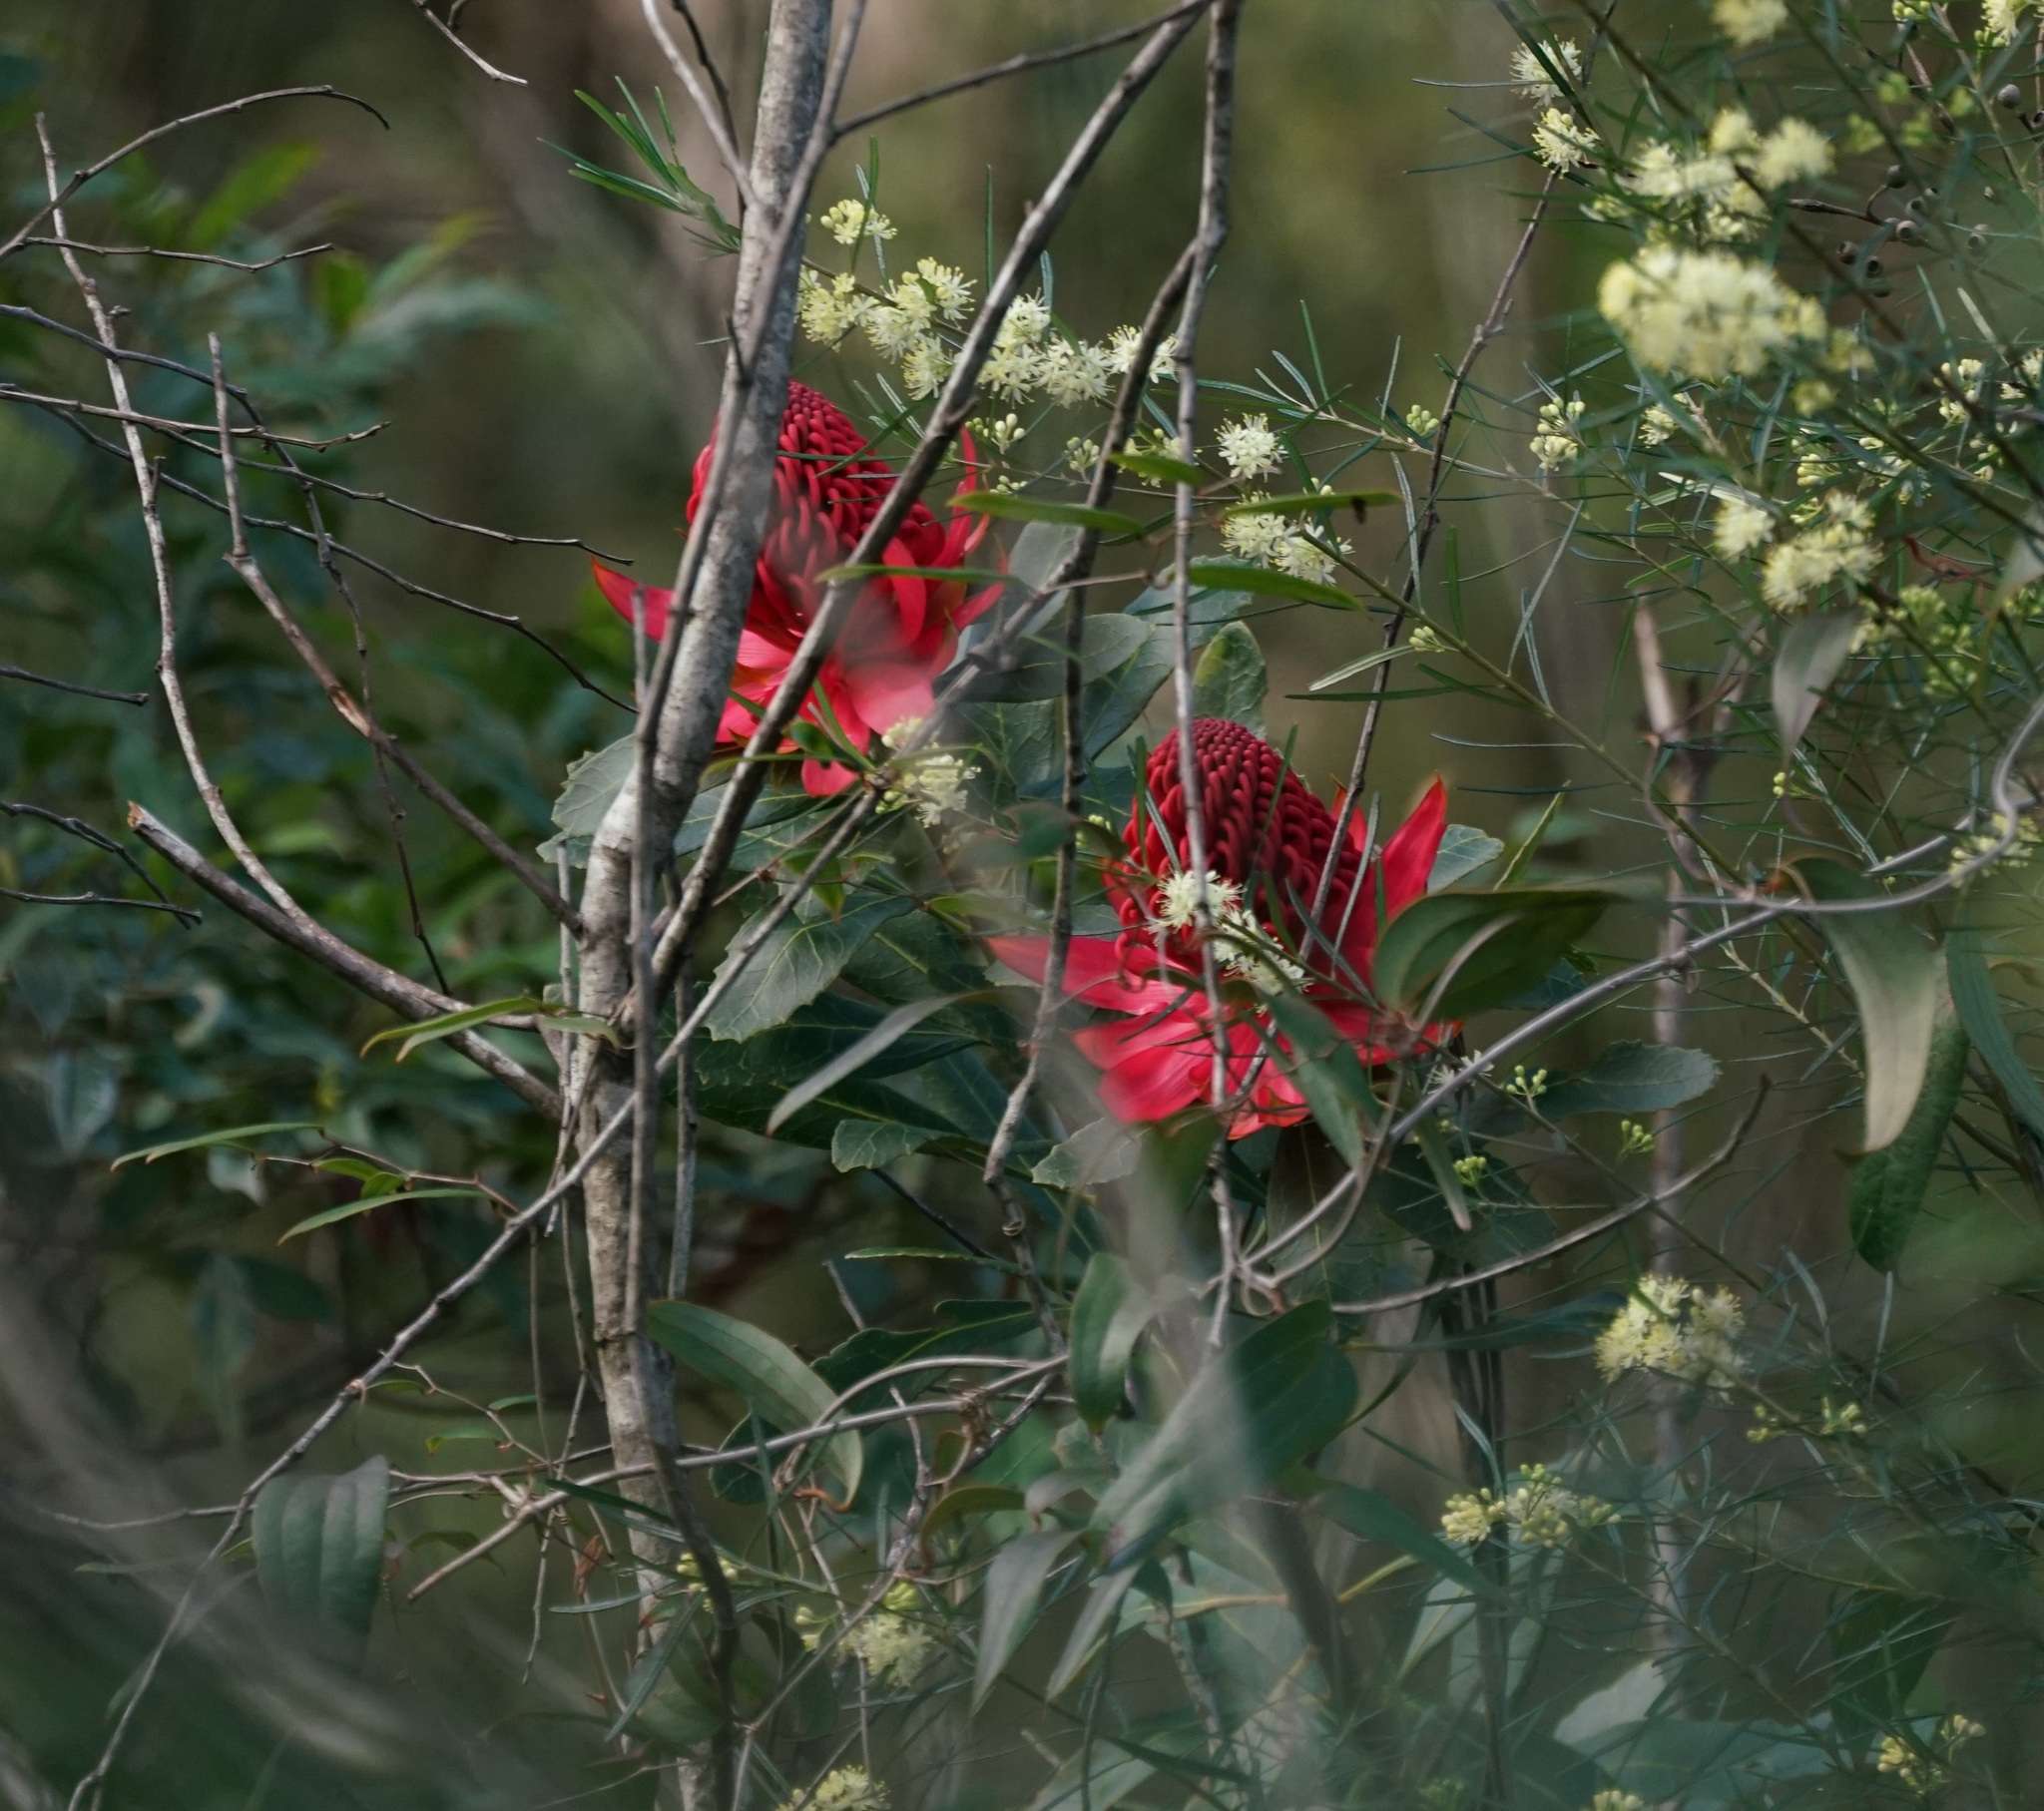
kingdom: Plantae
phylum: Tracheophyta
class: Magnoliopsida
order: Proteales
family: Proteaceae
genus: Telopea
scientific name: Telopea speciosissima
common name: New south wales waratah
